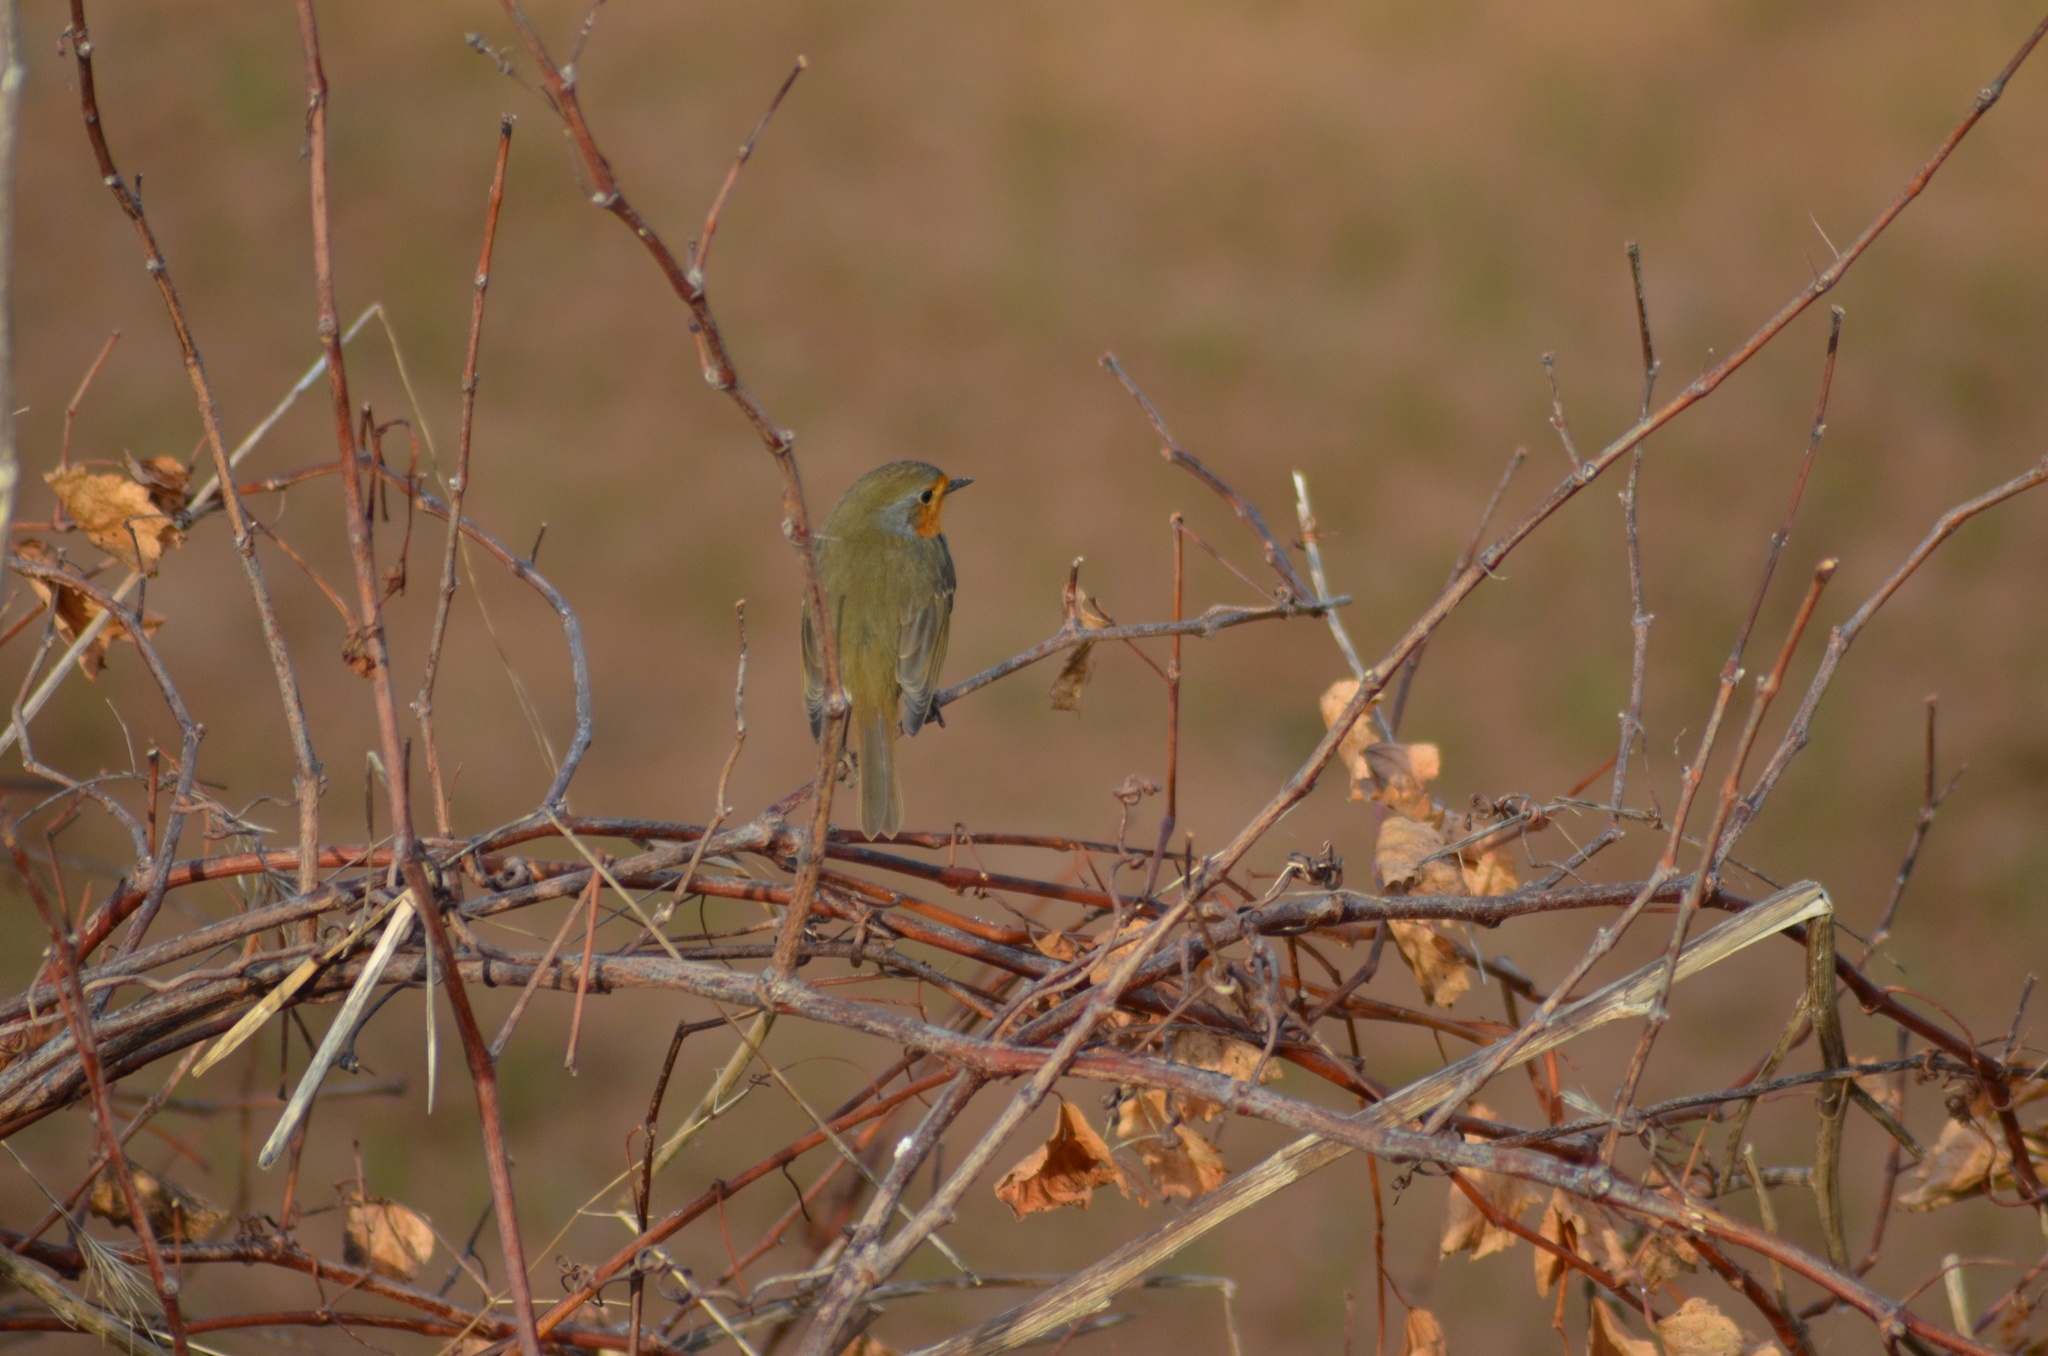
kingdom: Animalia
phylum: Chordata
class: Aves
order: Passeriformes
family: Muscicapidae
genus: Erithacus
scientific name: Erithacus rubecula
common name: European robin
